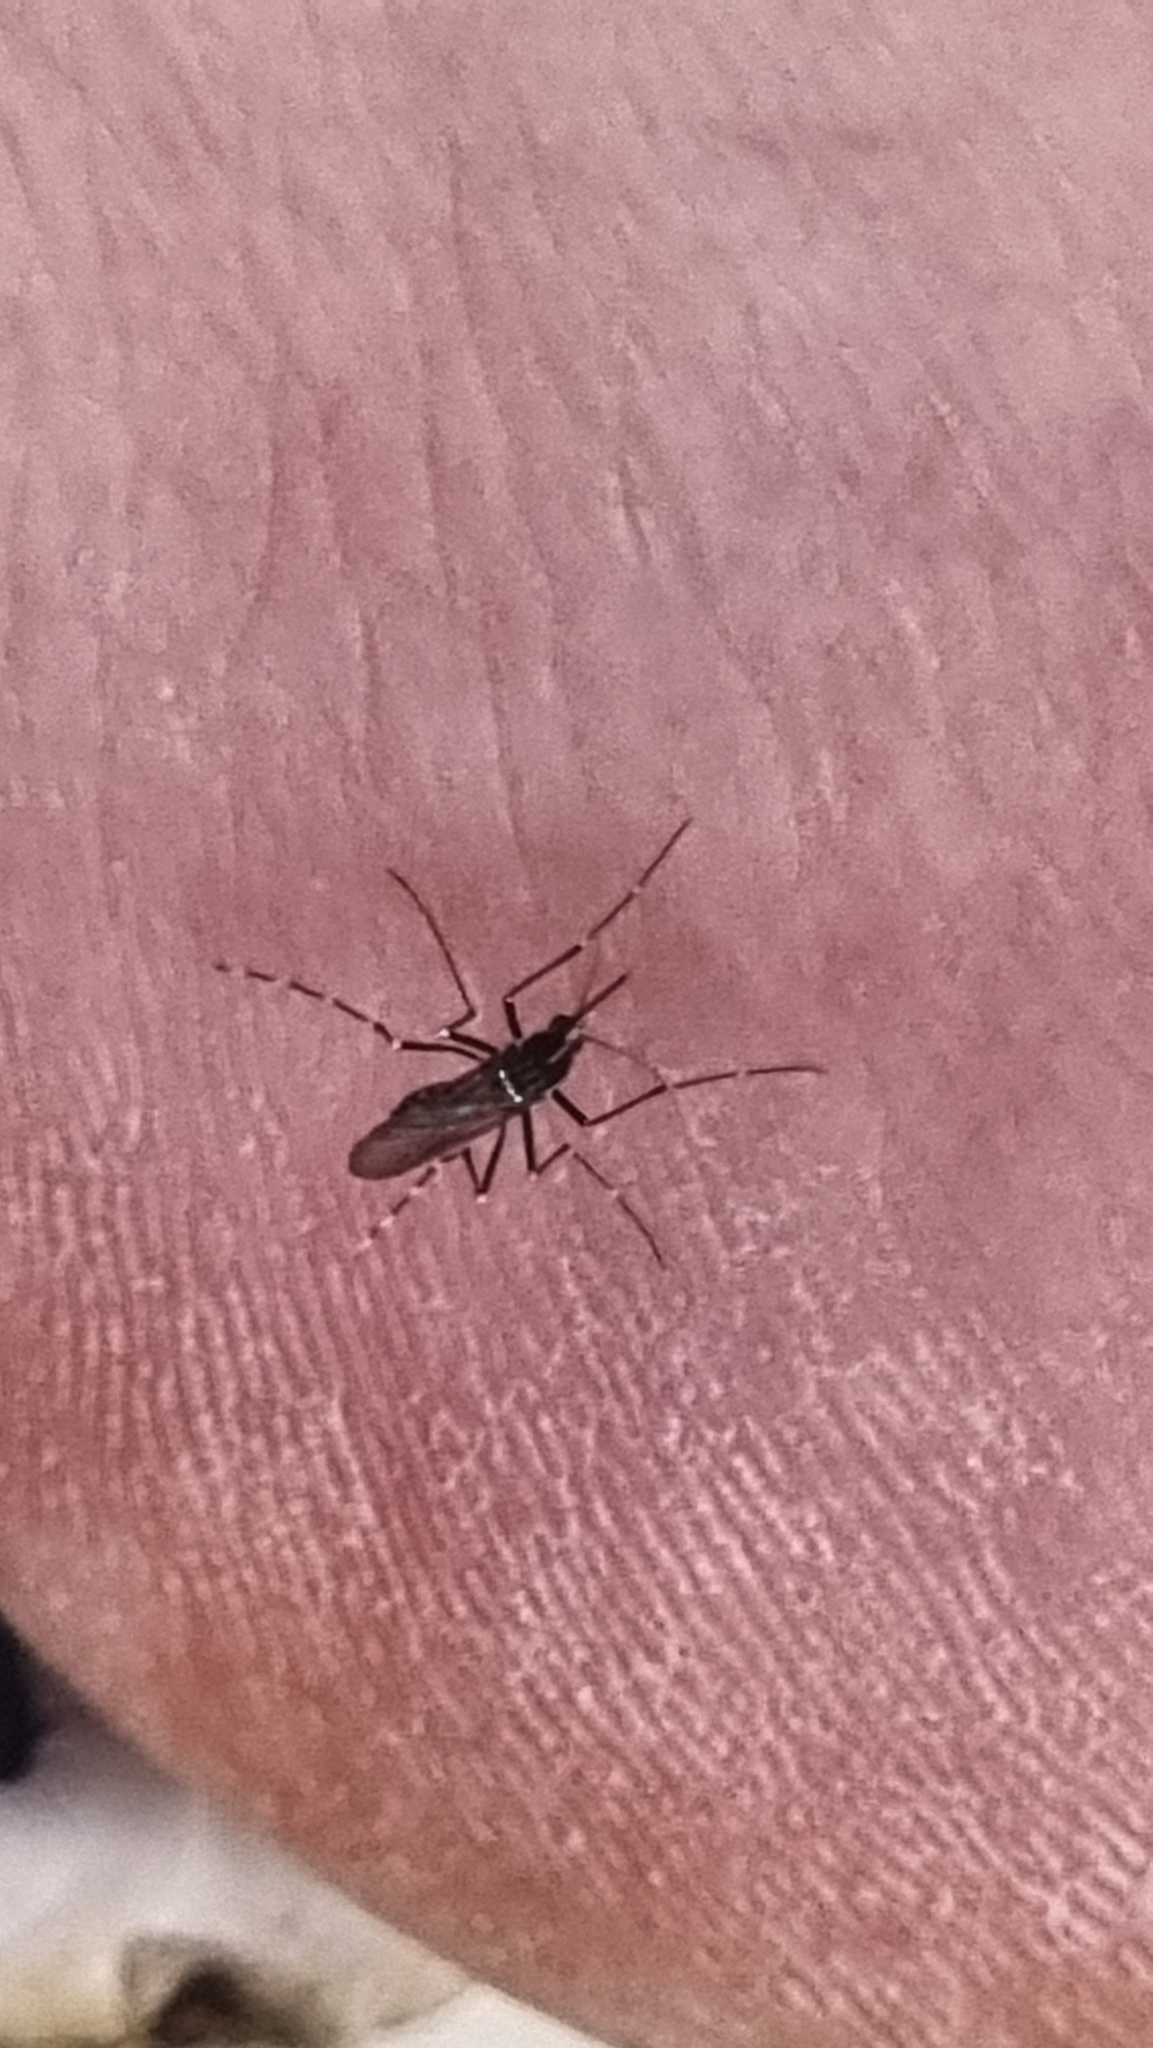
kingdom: Animalia
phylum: Arthropoda
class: Insecta
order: Diptera
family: Culicidae
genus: Aedes
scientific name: Aedes albopictus
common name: Tiger mosquito
